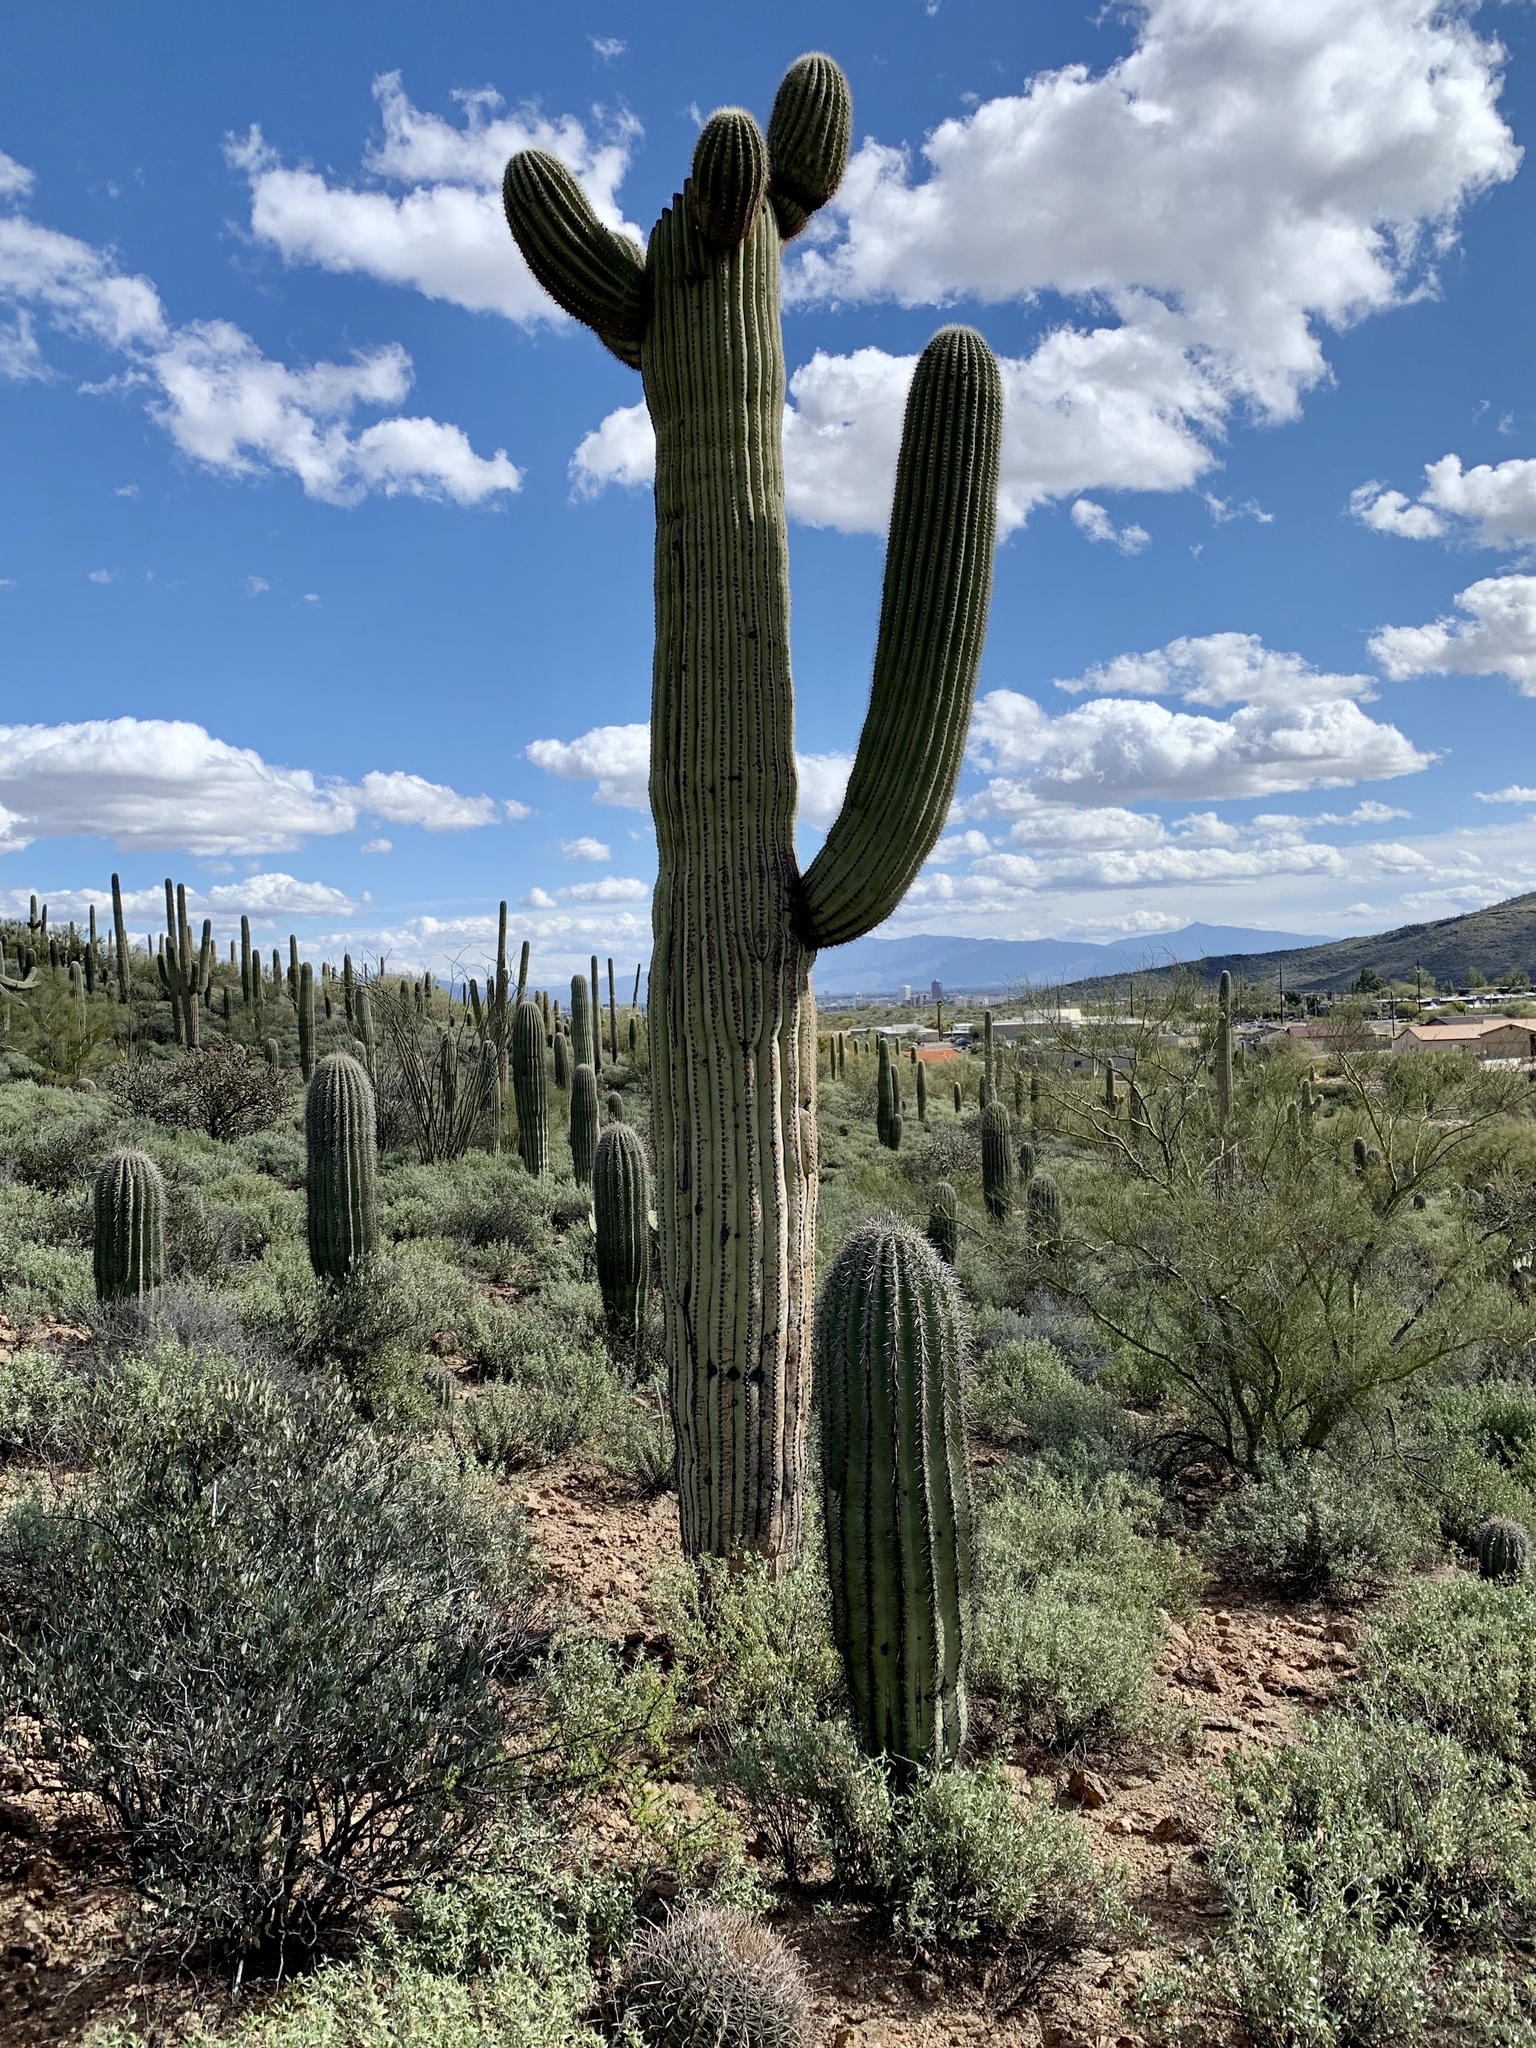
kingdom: Plantae
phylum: Tracheophyta
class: Magnoliopsida
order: Caryophyllales
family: Cactaceae
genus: Carnegiea
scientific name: Carnegiea gigantea
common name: Saguaro
